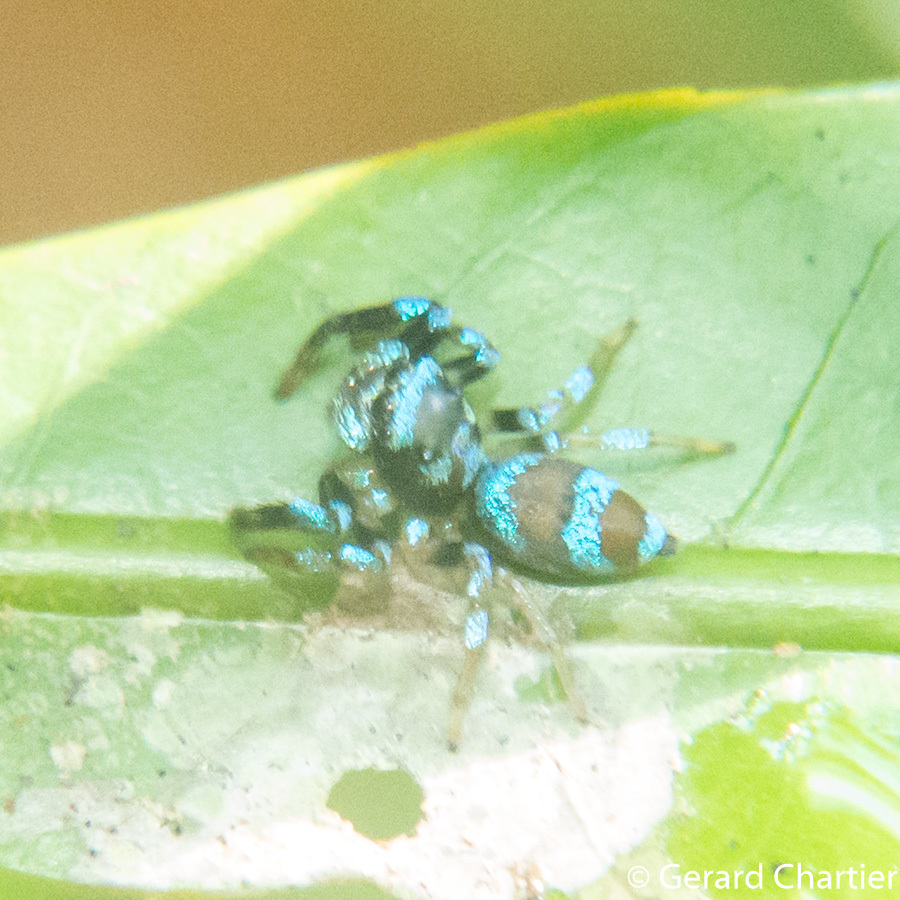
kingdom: Animalia
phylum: Arthropoda
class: Arachnida
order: Araneae
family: Salticidae
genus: Thiania
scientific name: Thiania bhamoensis
